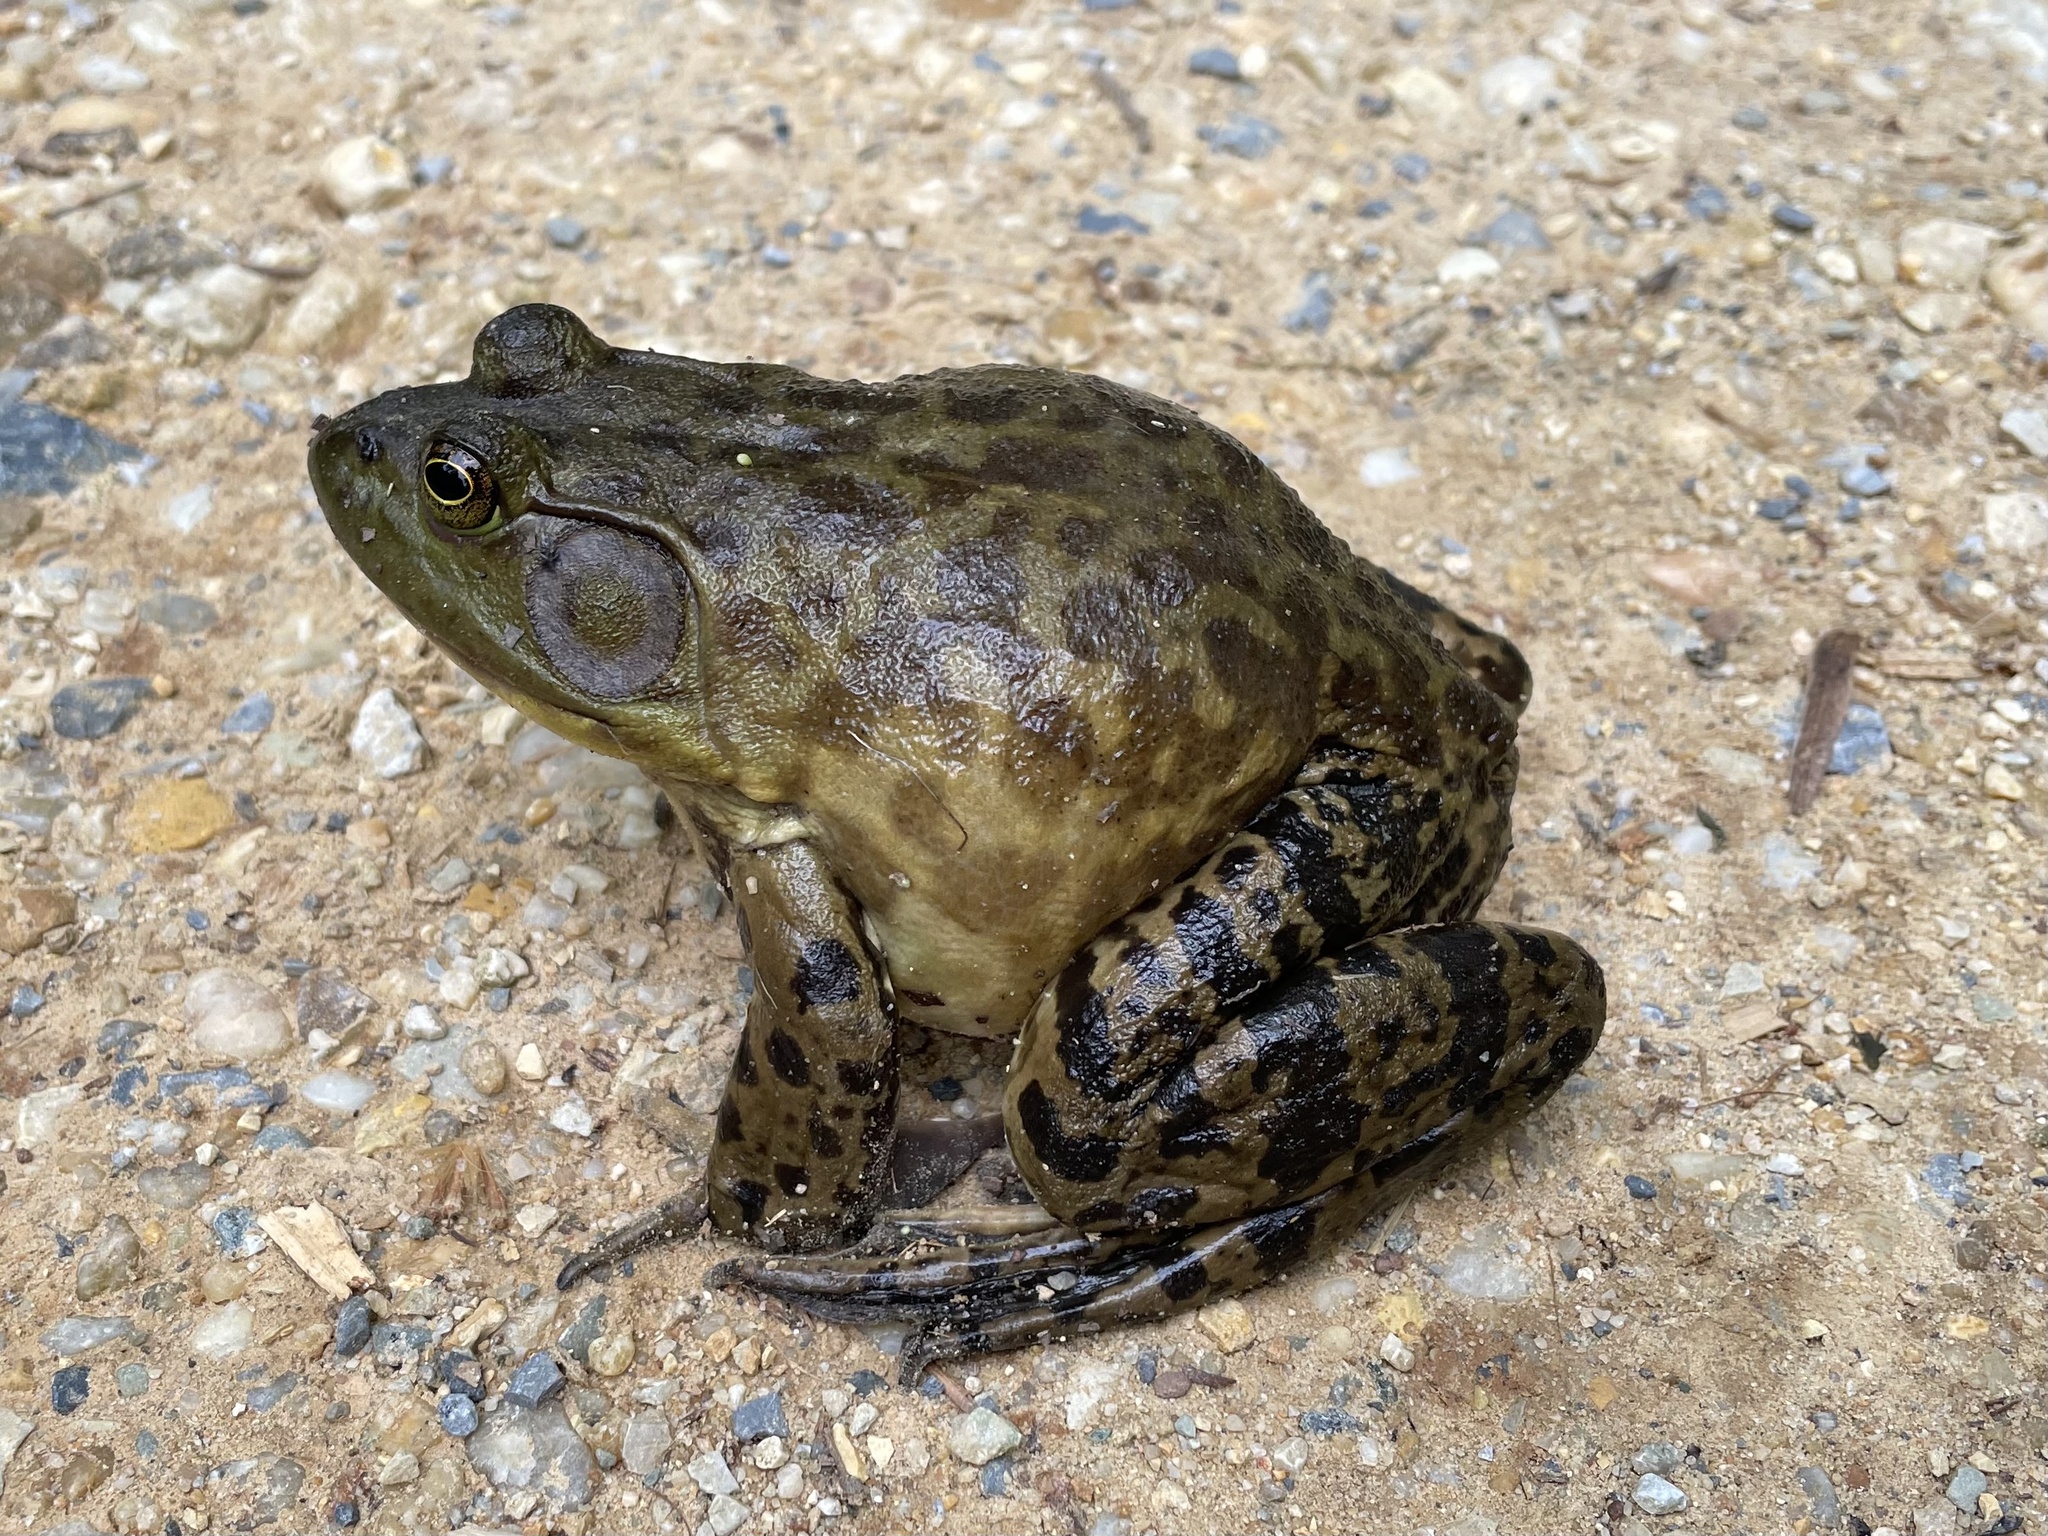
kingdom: Animalia
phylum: Chordata
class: Amphibia
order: Anura
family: Ranidae
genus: Lithobates
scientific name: Lithobates catesbeianus
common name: American bullfrog
